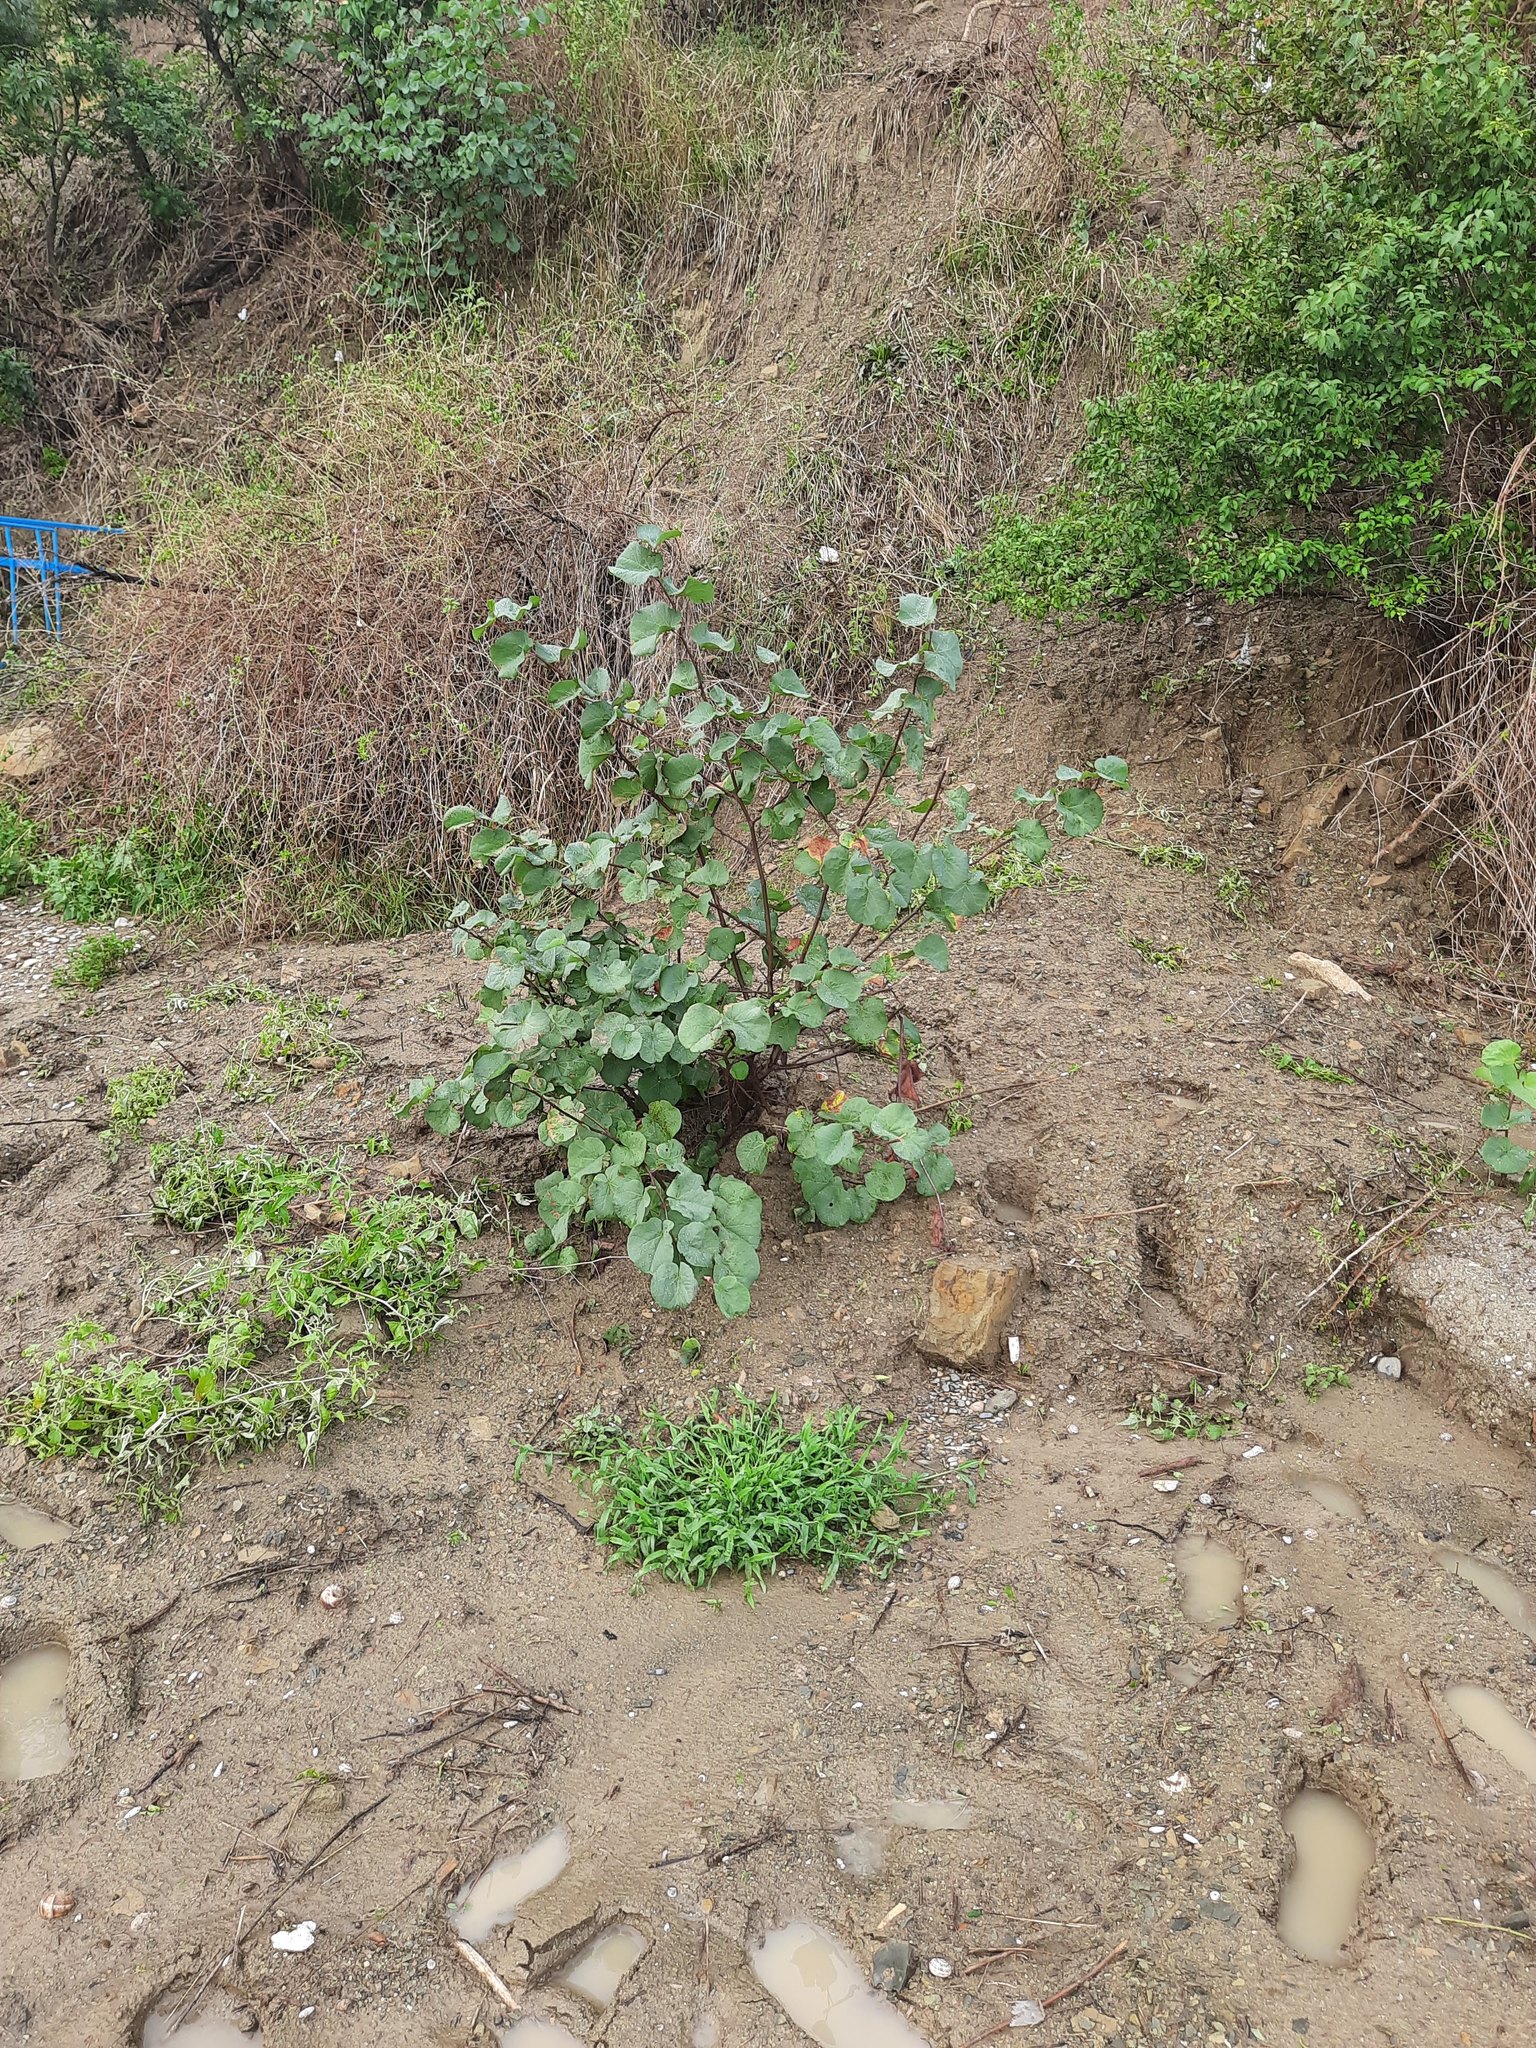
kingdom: Plantae
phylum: Tracheophyta
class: Magnoliopsida
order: Fabales
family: Fabaceae
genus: Cercis
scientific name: Cercis siliquastrum
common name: Judas tree
